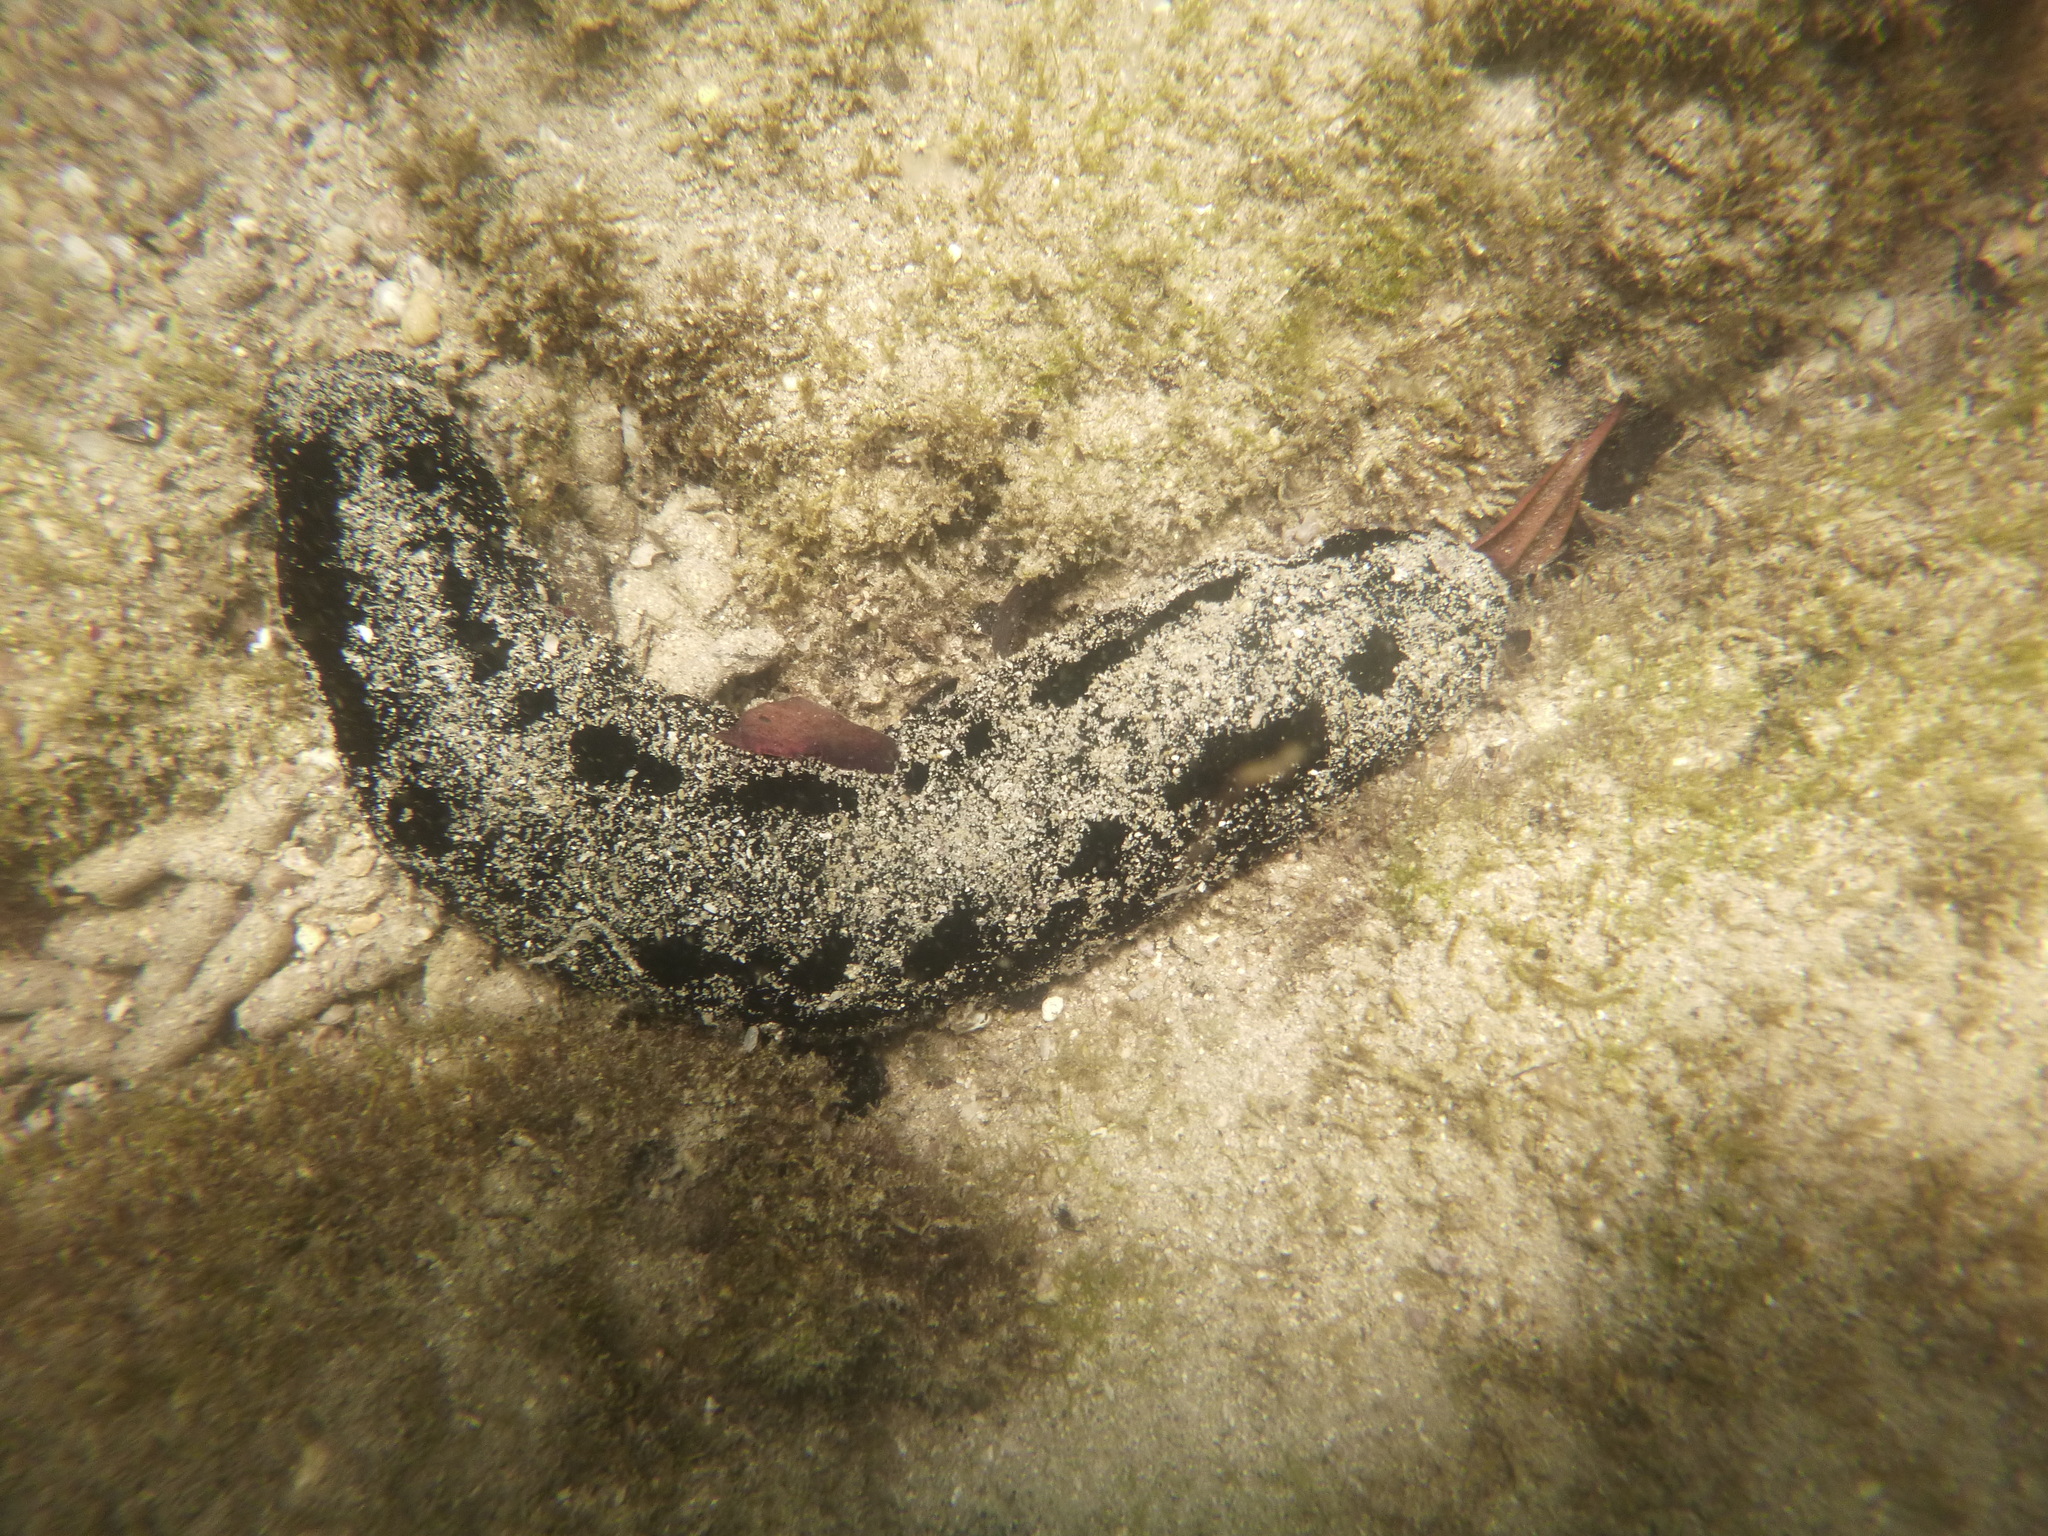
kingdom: Animalia
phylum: Echinodermata
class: Holothuroidea
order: Holothuriida
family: Holothuriidae
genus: Holothuria
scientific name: Holothuria atra
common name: Lollyfish
